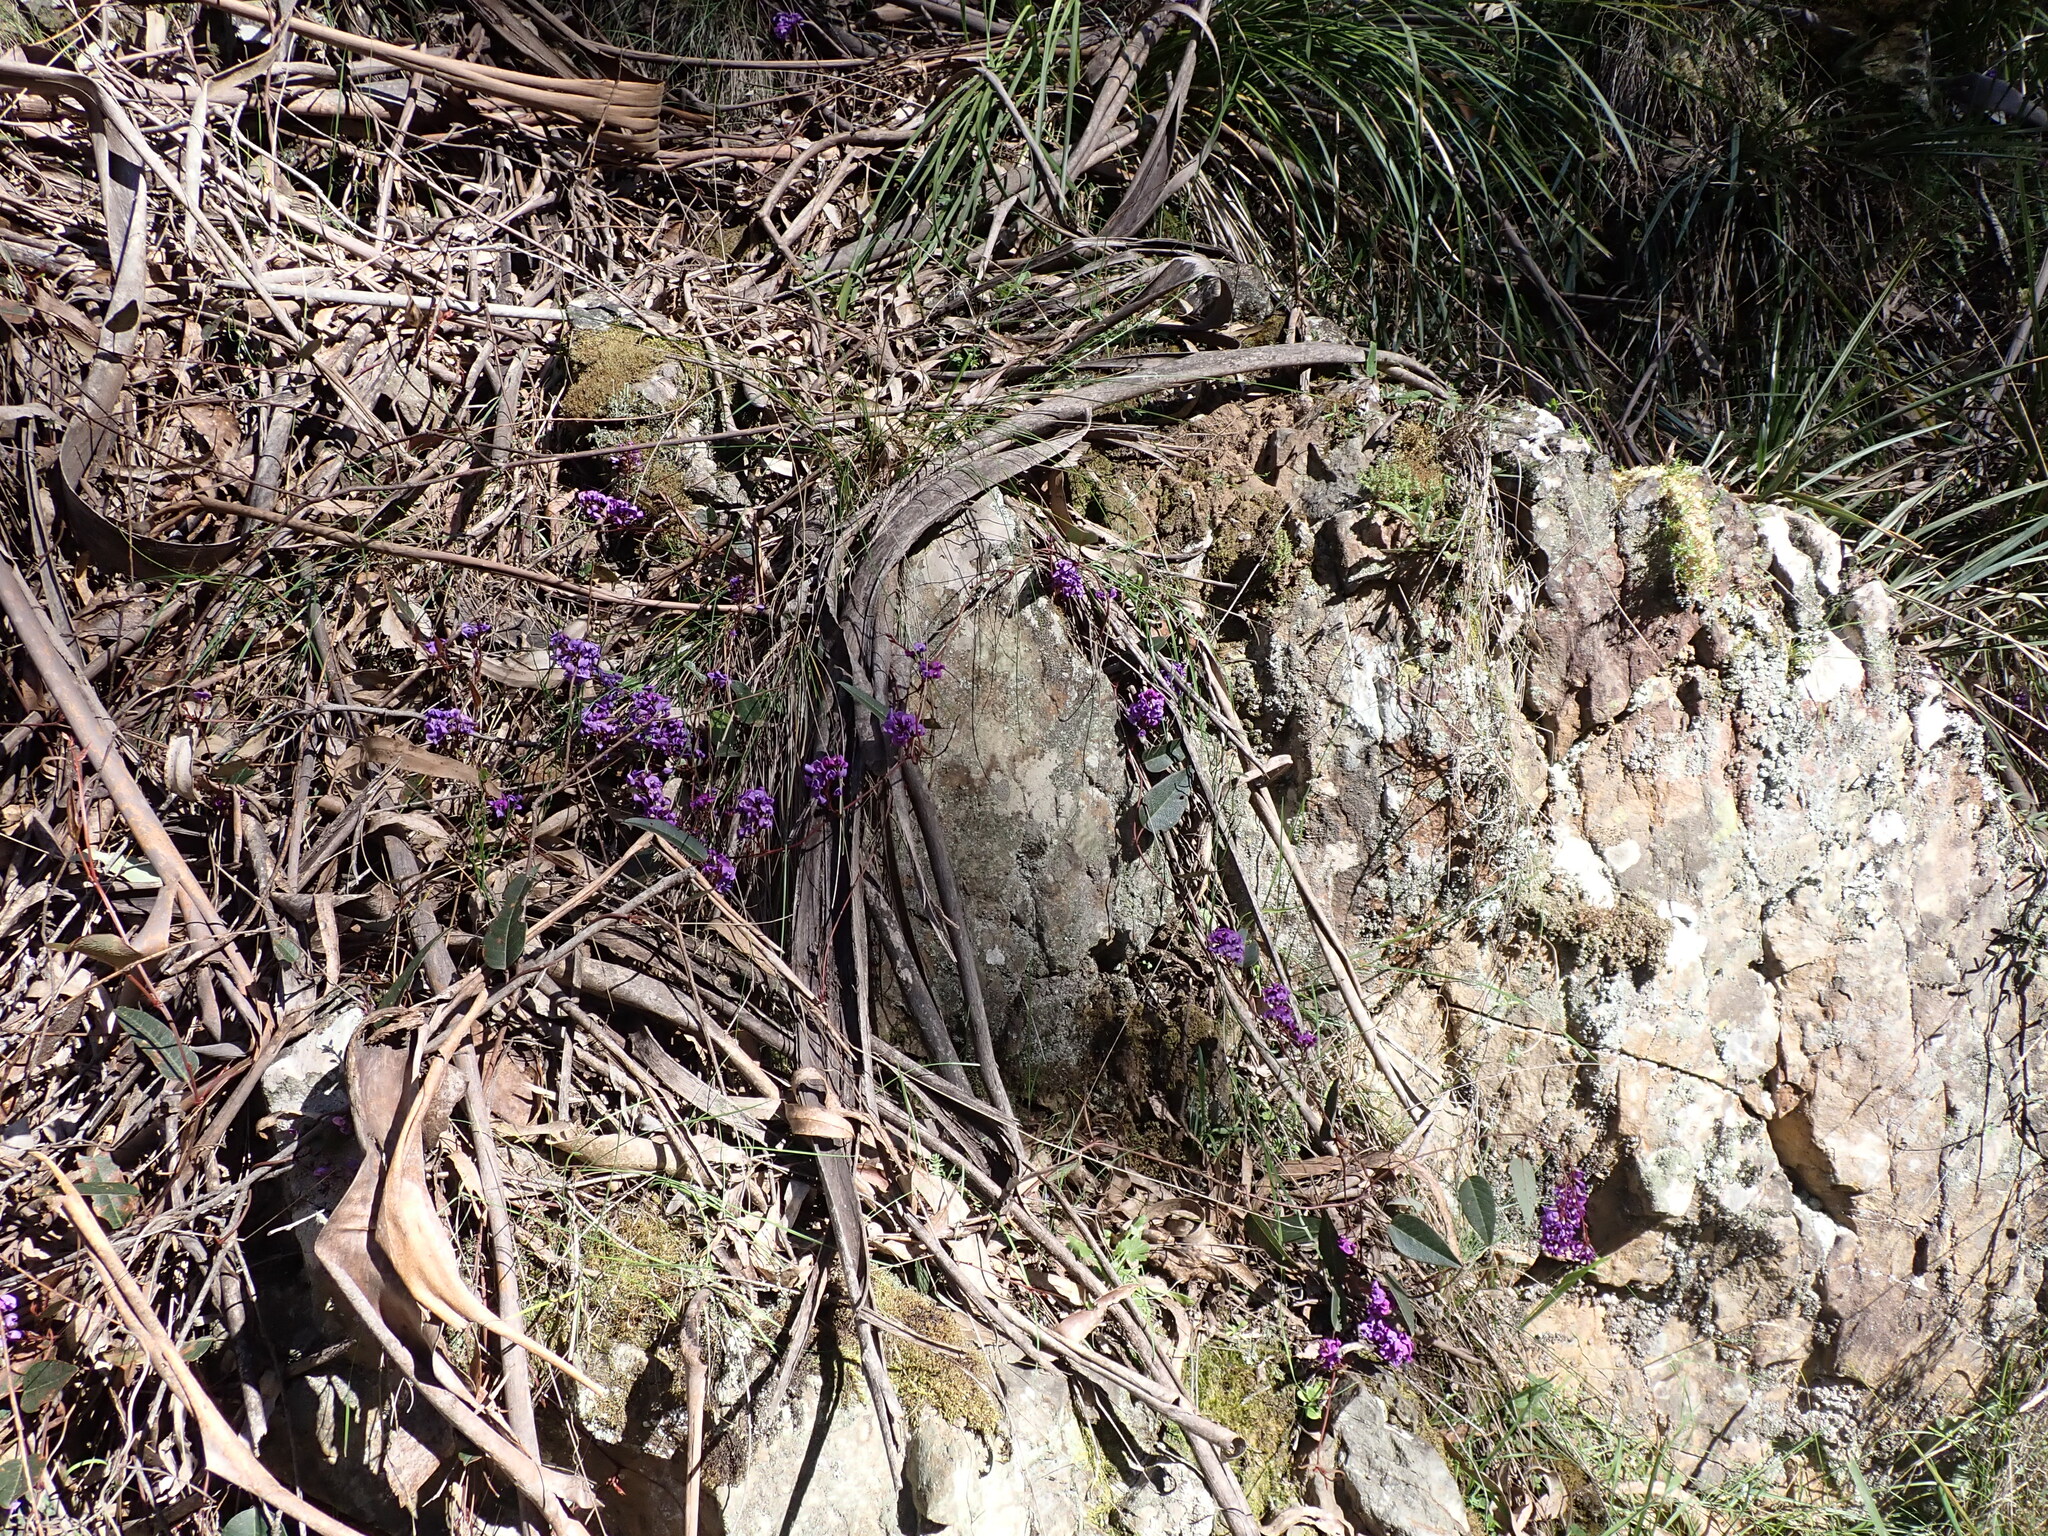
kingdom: Plantae
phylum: Tracheophyta
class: Magnoliopsida
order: Fabales
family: Fabaceae
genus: Hardenbergia
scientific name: Hardenbergia violacea
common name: Coral-pea
